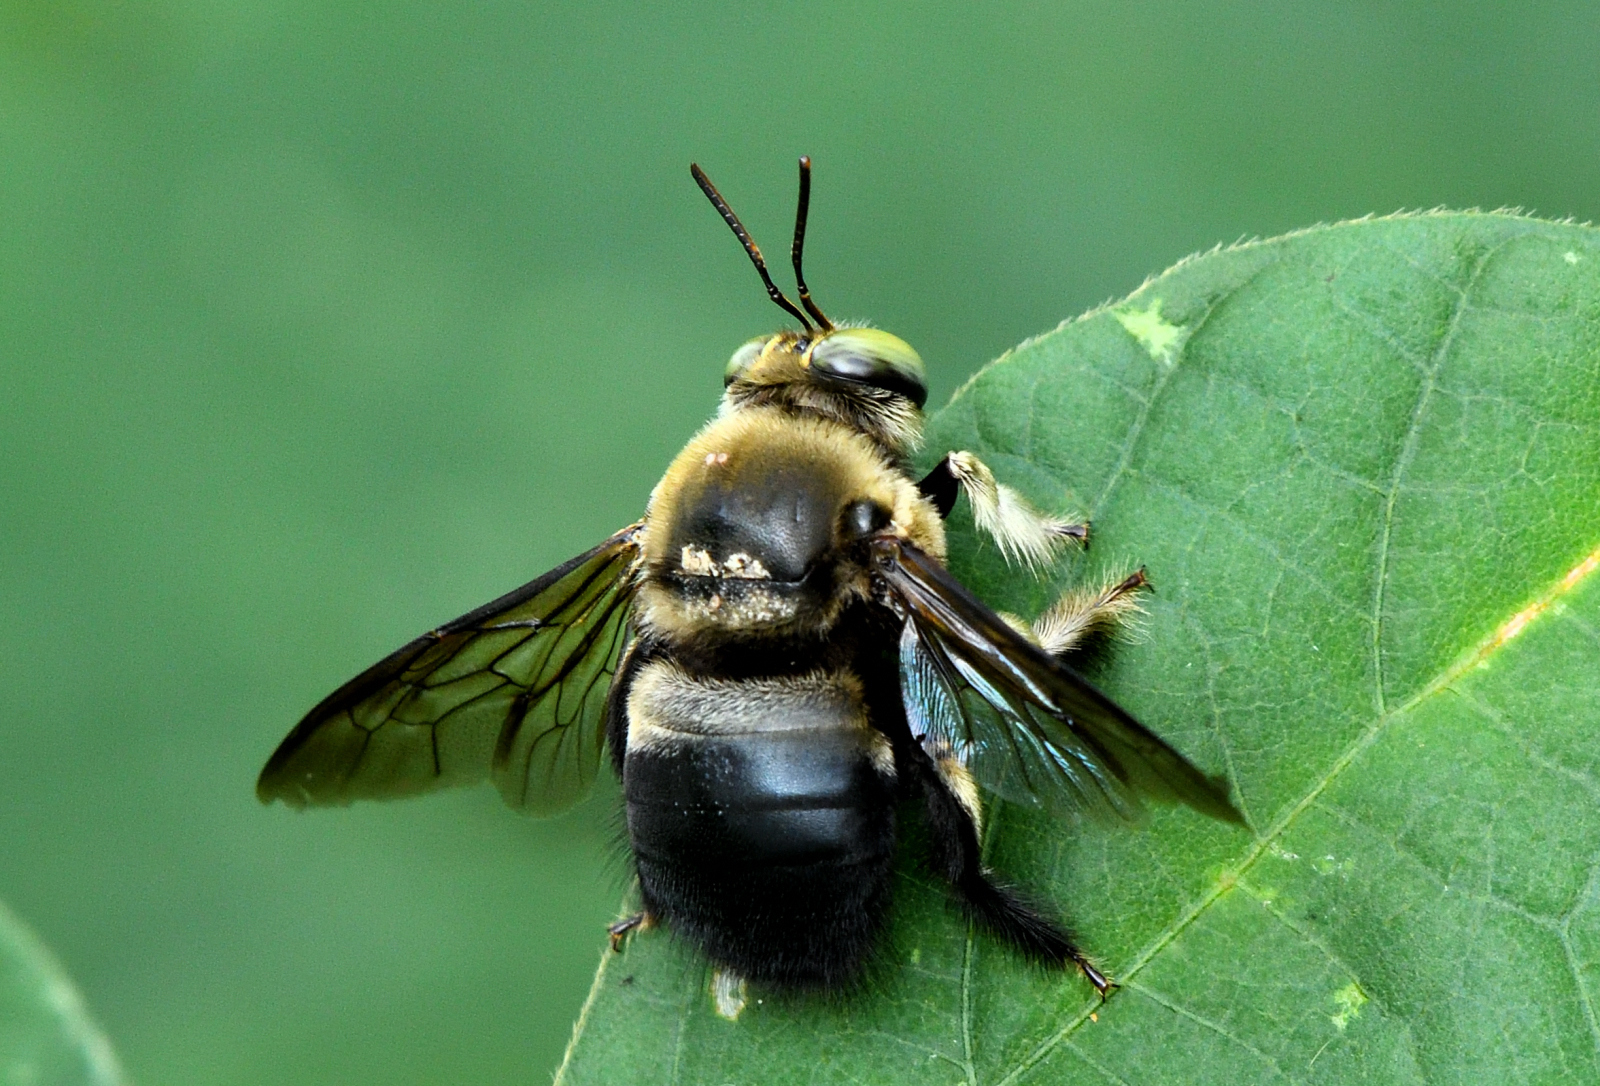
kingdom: Animalia
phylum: Arthropoda
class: Insecta
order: Hymenoptera
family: Apidae
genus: Xylocopa
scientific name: Xylocopa bhowara
